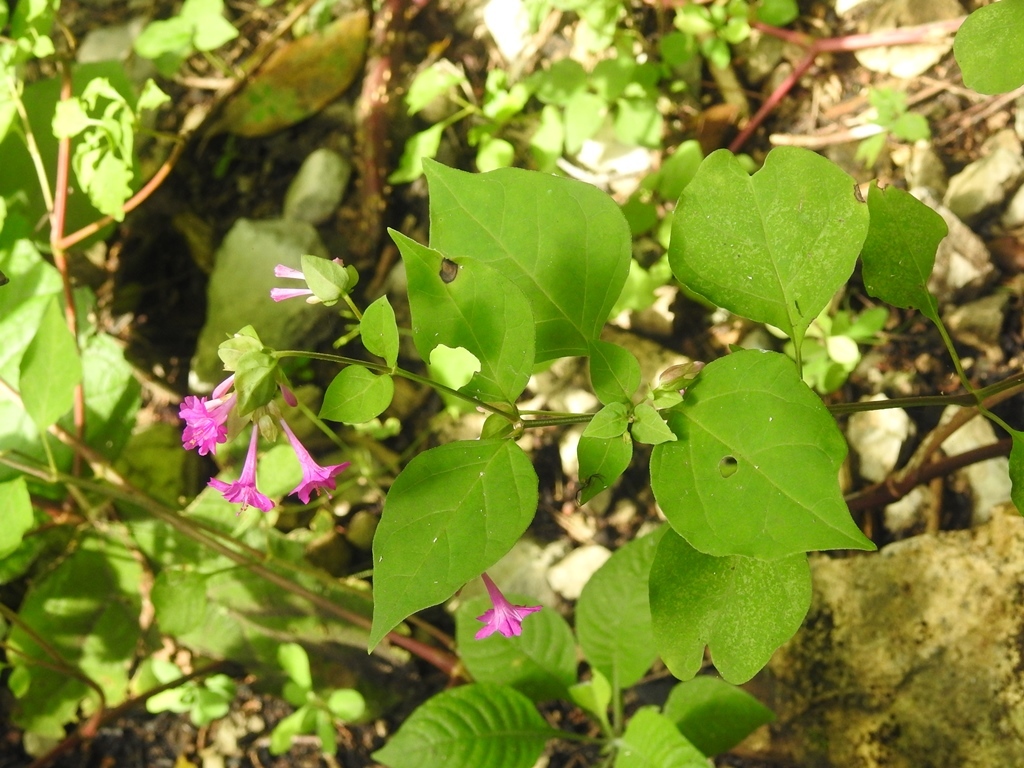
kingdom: Plantae
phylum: Tracheophyta
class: Magnoliopsida
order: Caryophyllales
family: Nyctaginaceae
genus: Mirabilis
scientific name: Mirabilis sanguinea
